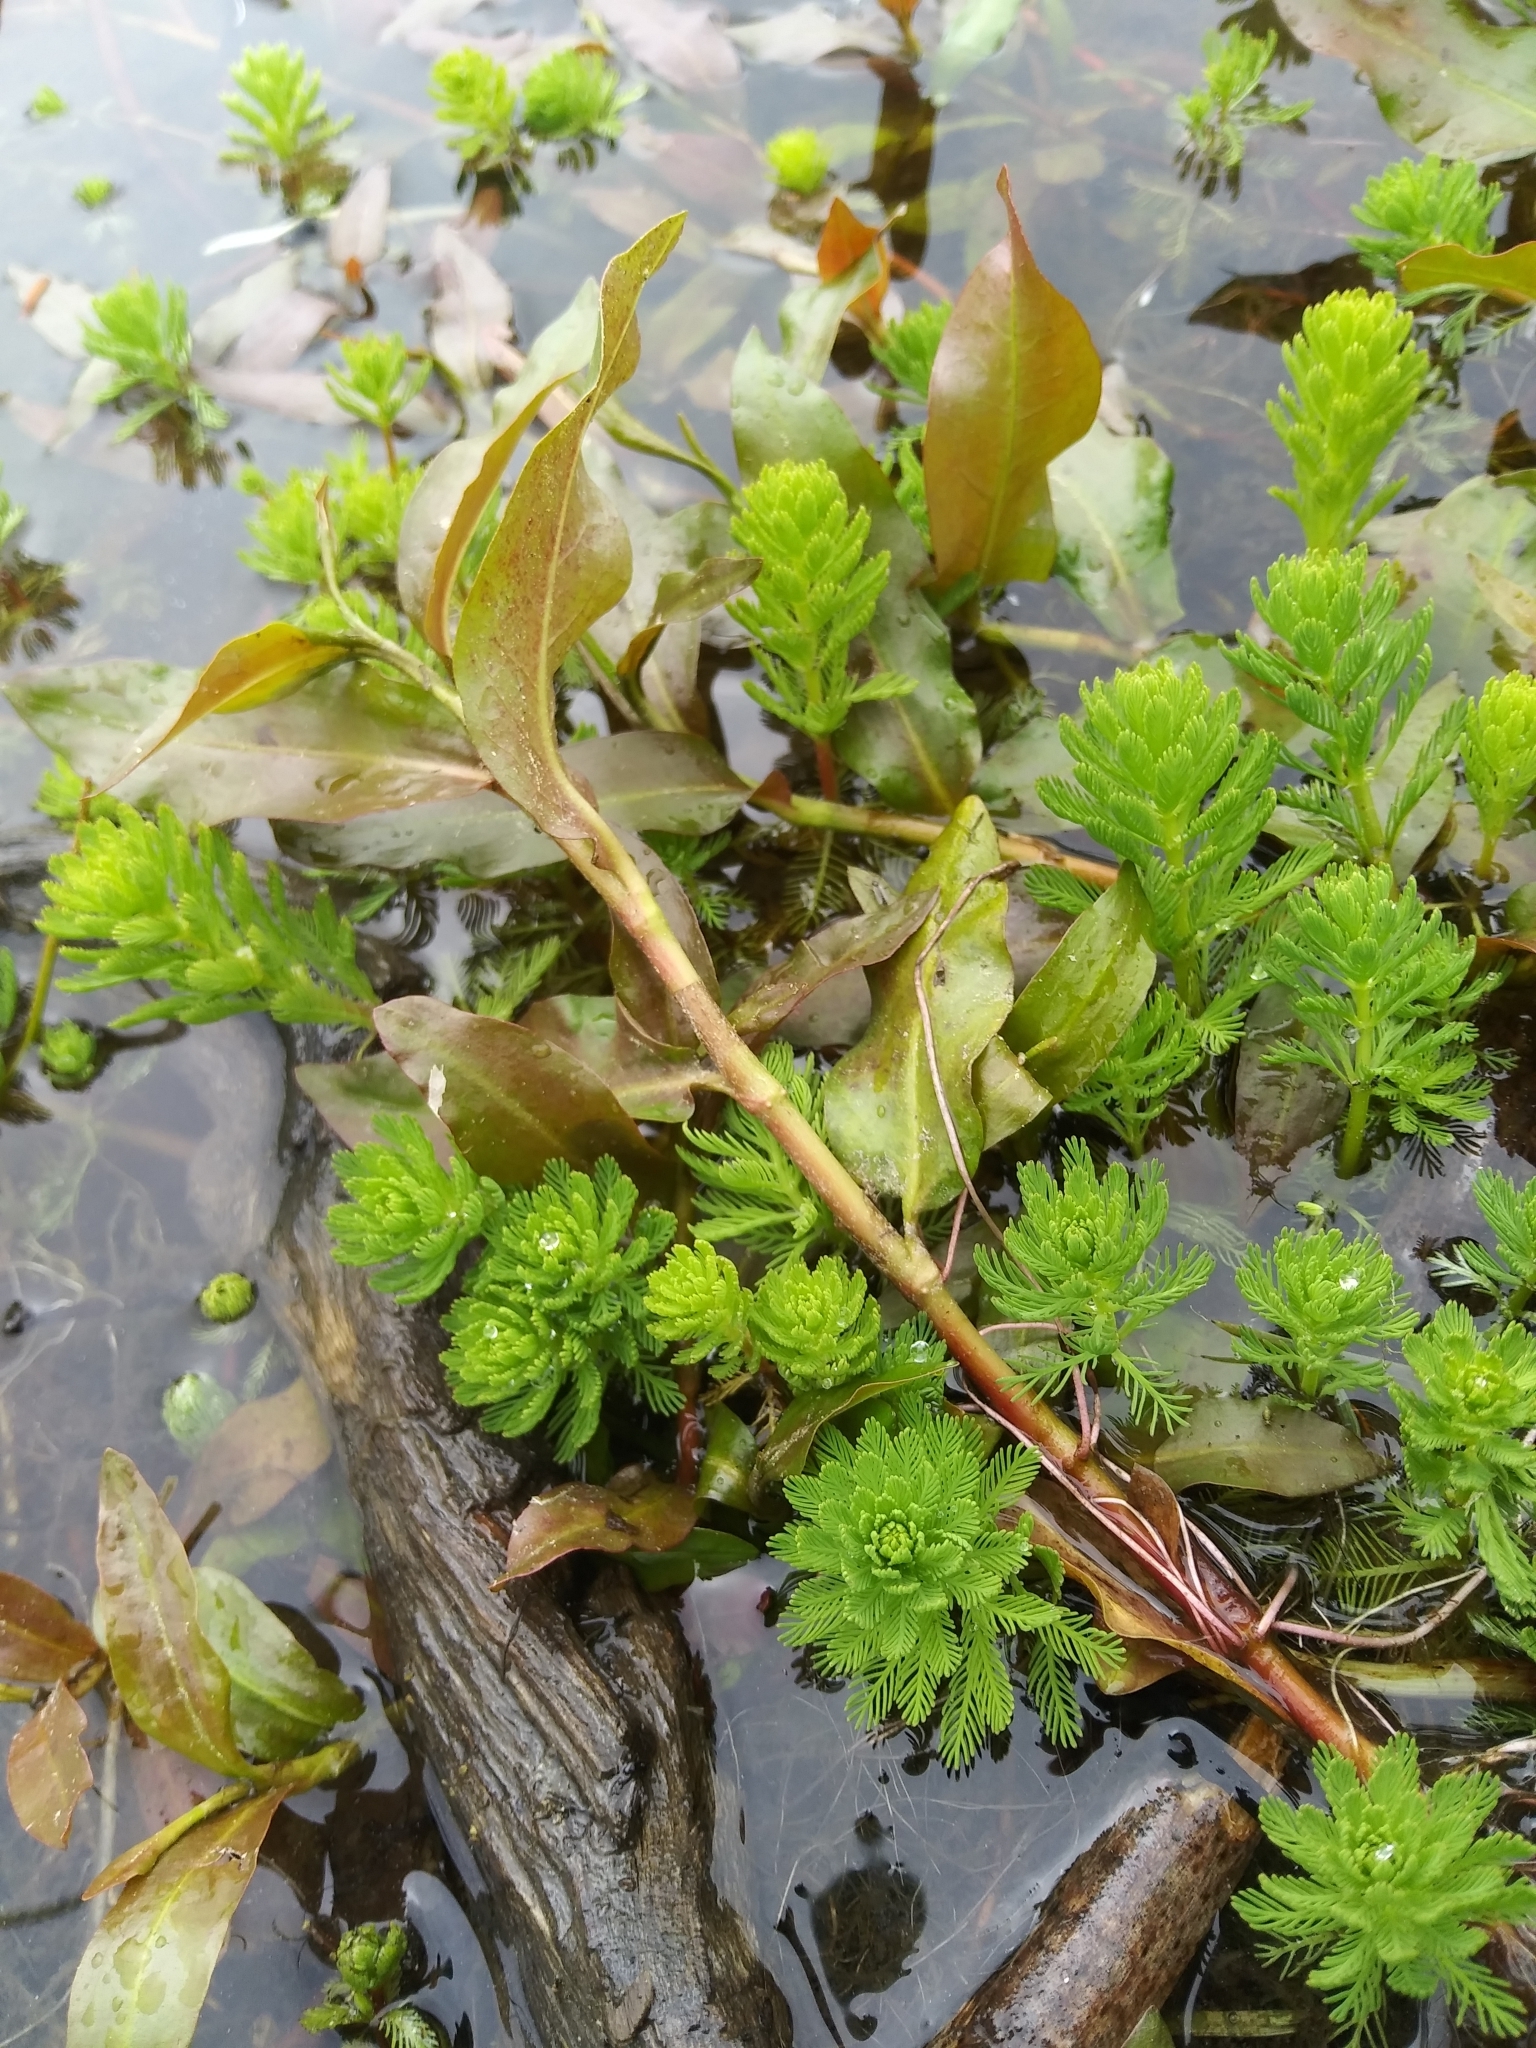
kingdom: Plantae
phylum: Tracheophyta
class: Magnoliopsida
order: Saxifragales
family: Haloragaceae
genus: Myriophyllum
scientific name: Myriophyllum aquaticum
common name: Parrot's feather
